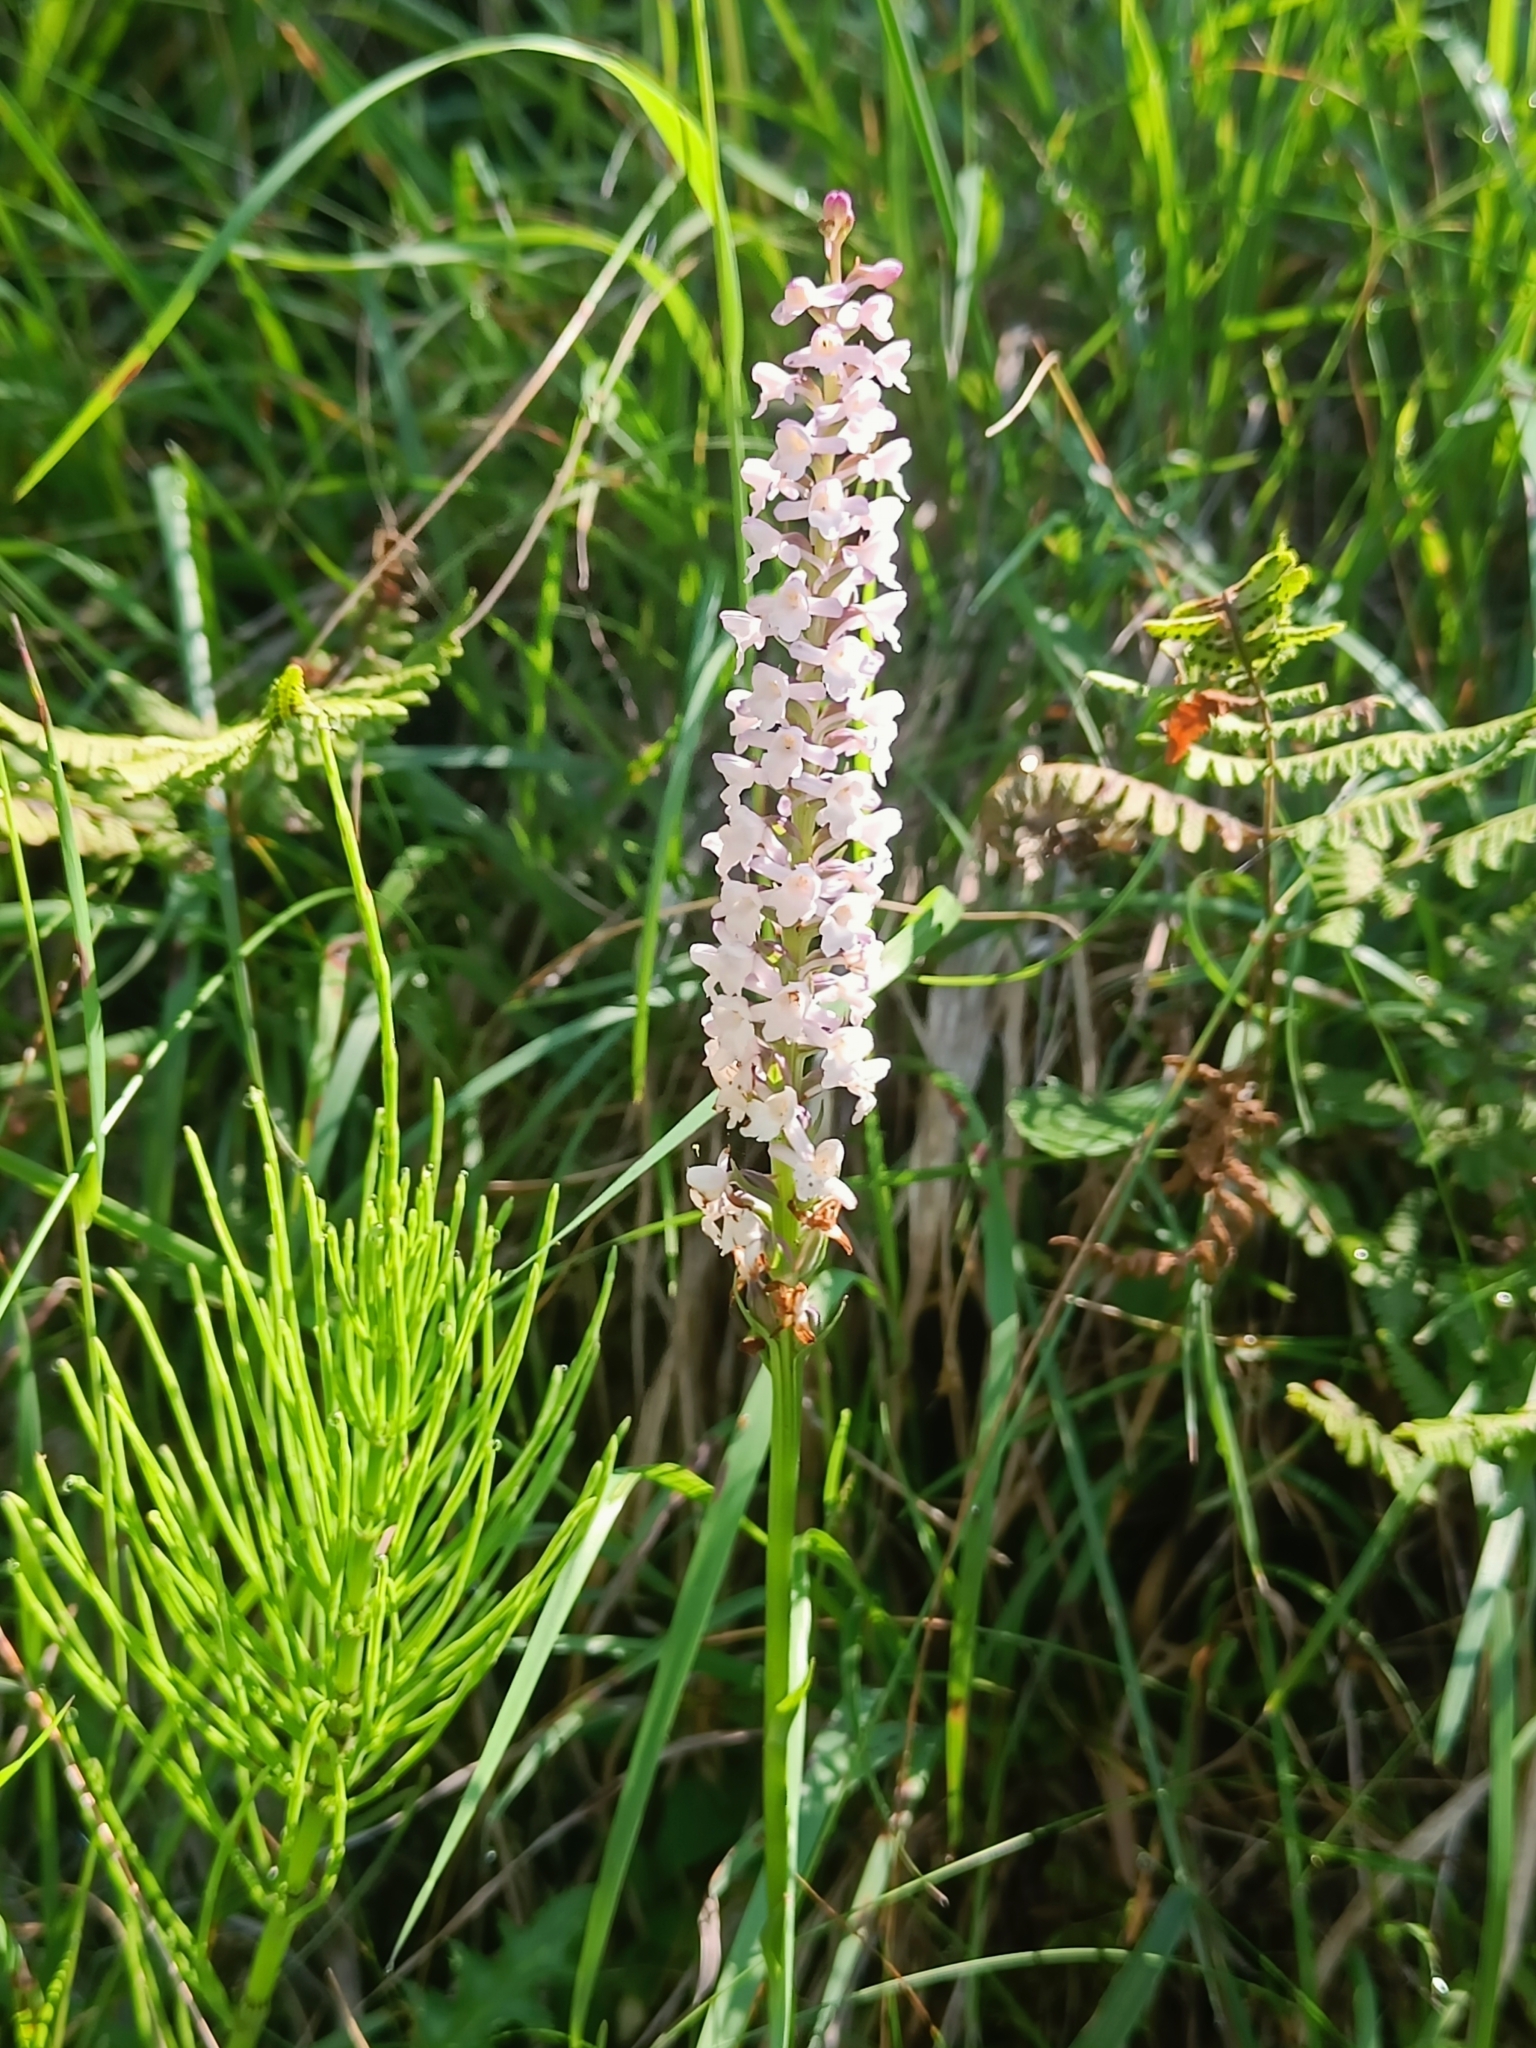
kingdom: Plantae
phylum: Tracheophyta
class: Liliopsida
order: Asparagales
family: Orchidaceae
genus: Gymnadenia
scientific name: Gymnadenia odoratissima
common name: Scented gymnadenia
